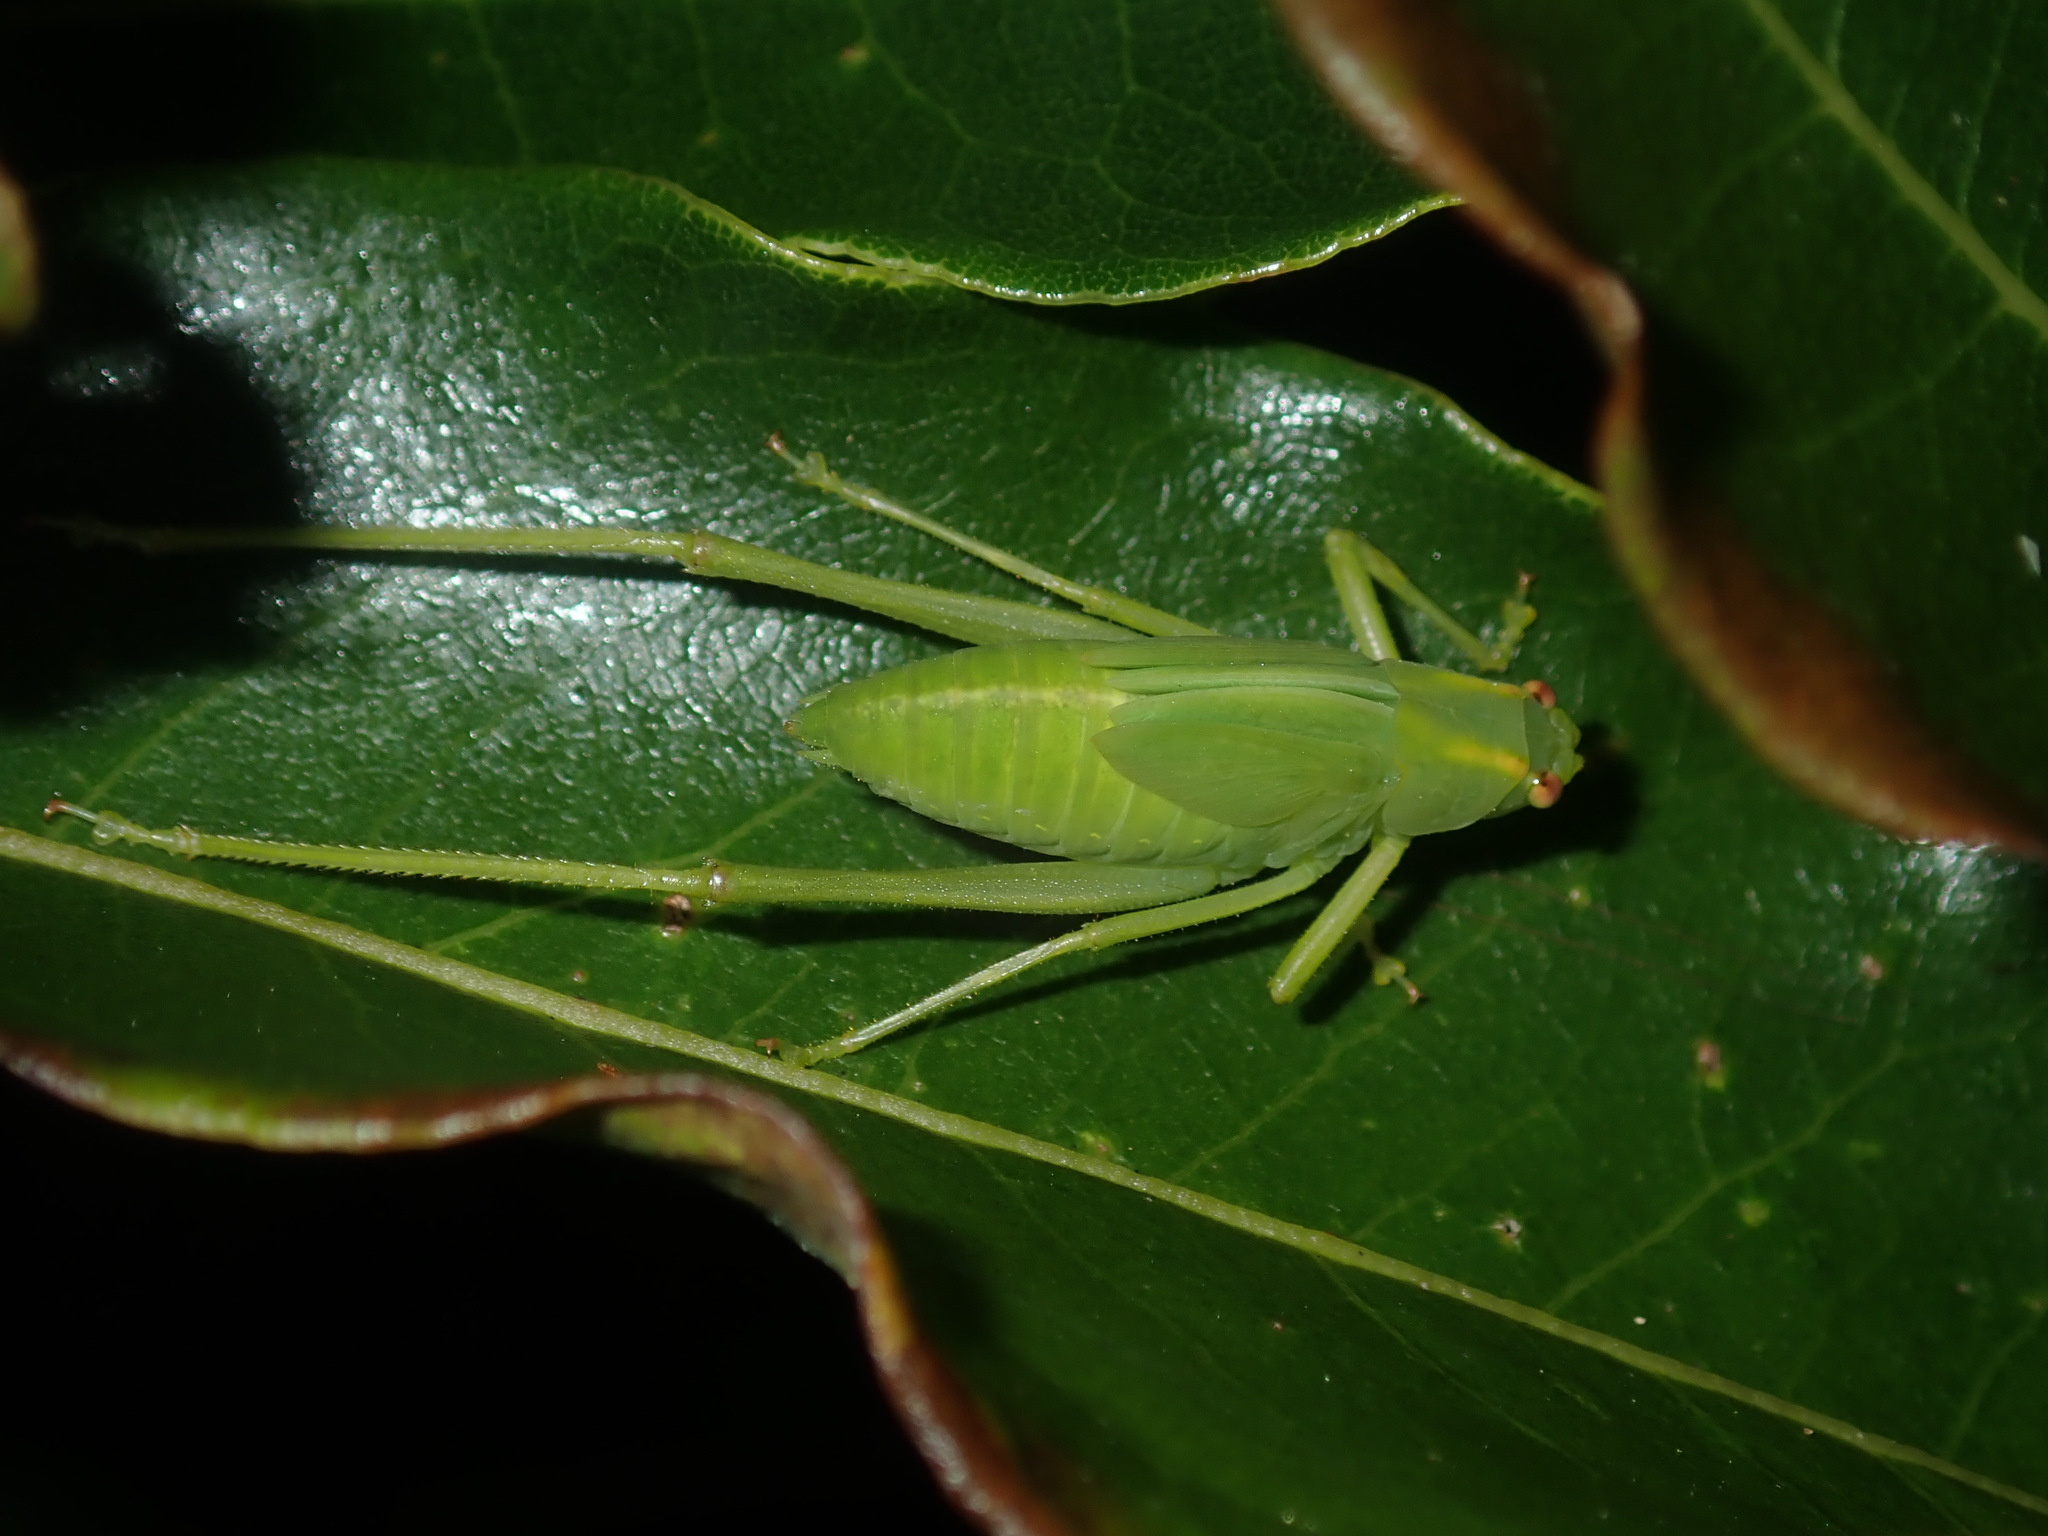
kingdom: Animalia
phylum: Arthropoda
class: Insecta
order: Orthoptera
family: Tettigoniidae
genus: Caedicia
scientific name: Caedicia simplex
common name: Common garden katydid
